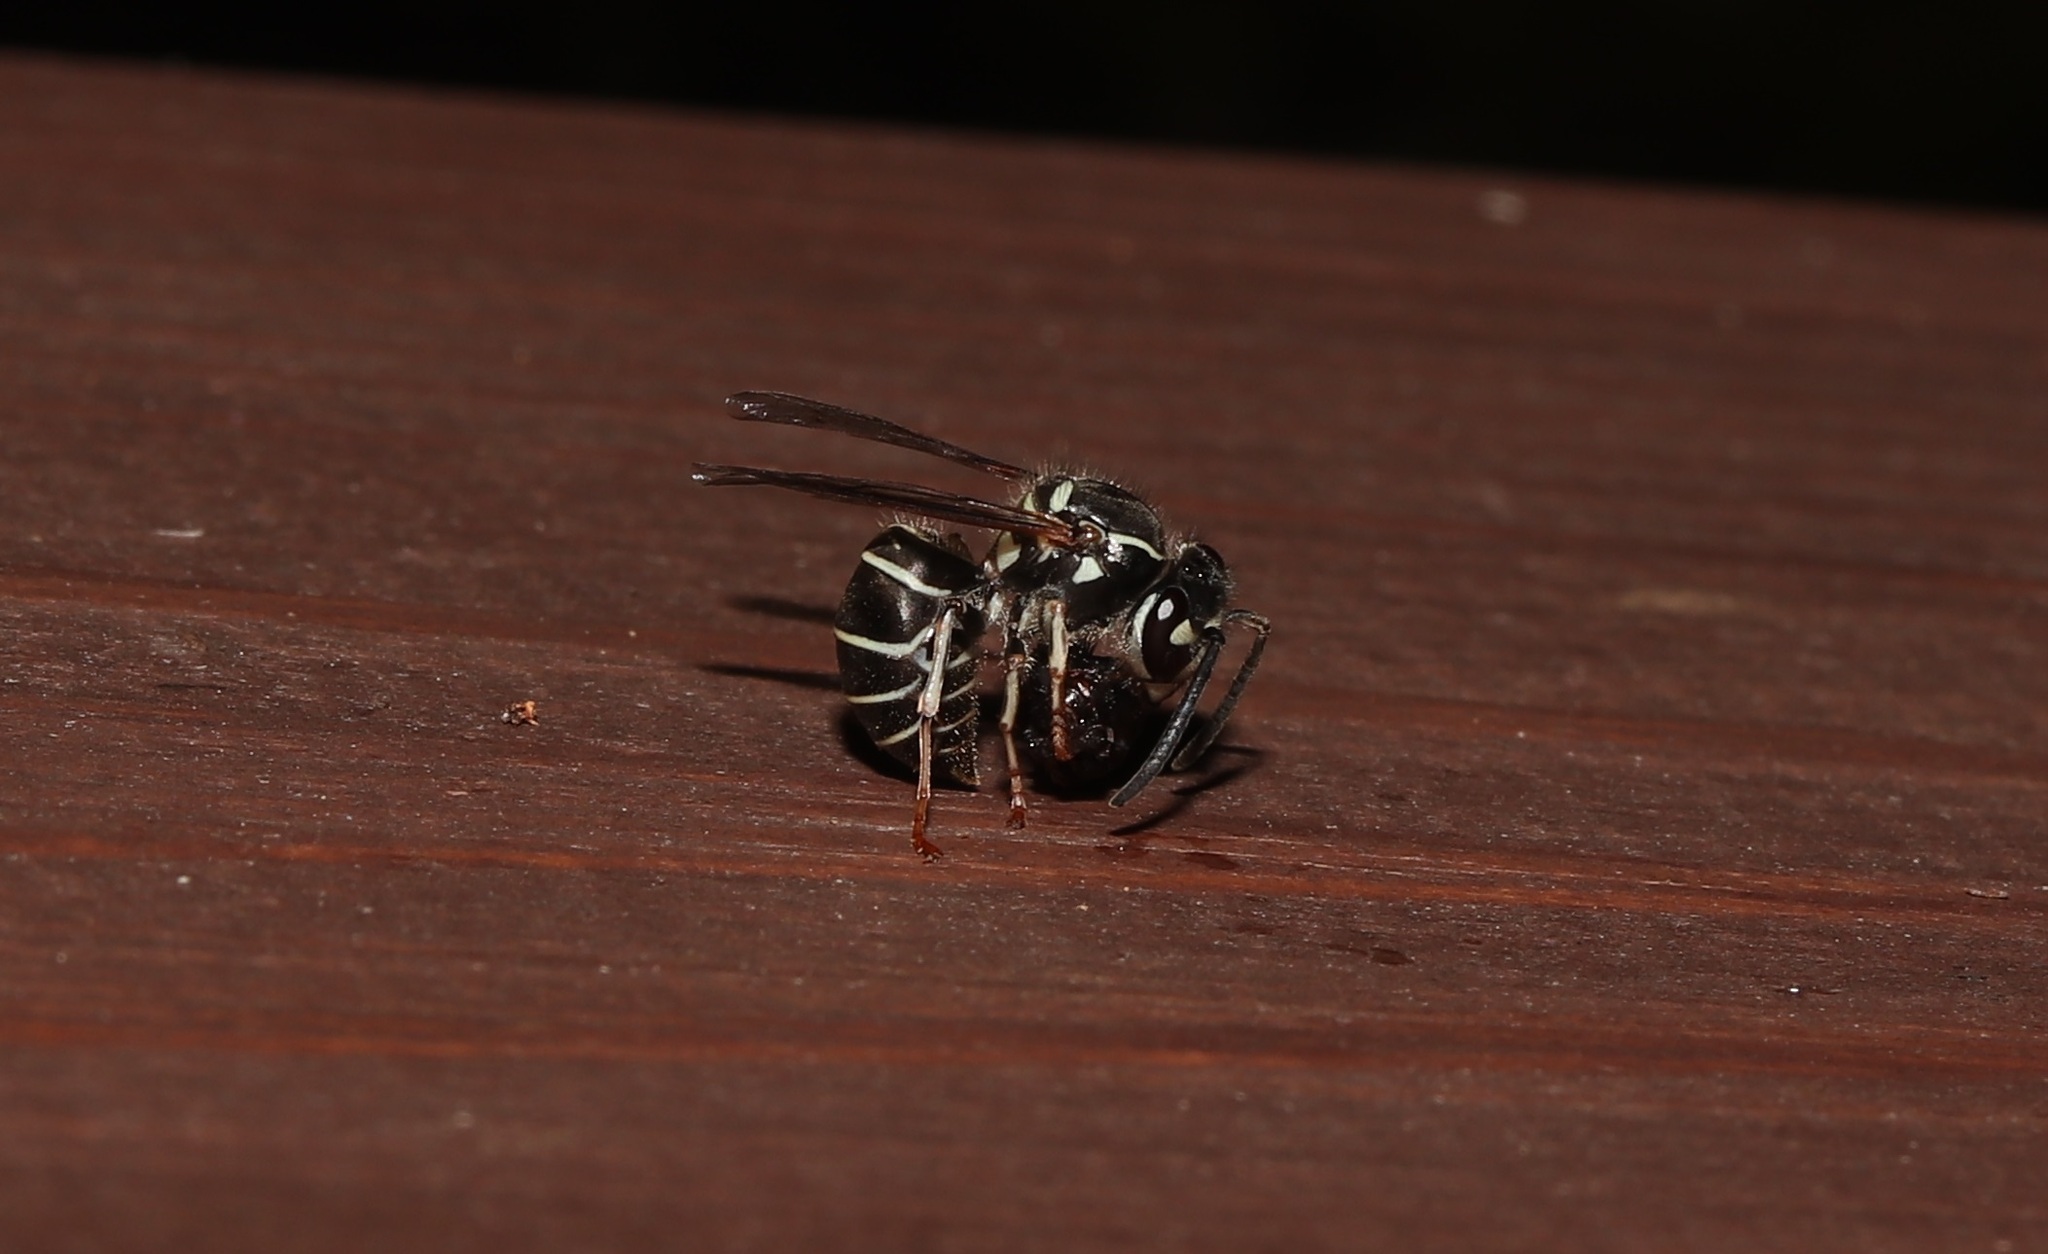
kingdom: Animalia
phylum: Arthropoda
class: Insecta
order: Hymenoptera
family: Vespidae
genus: Vespula
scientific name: Vespula flaviceps
